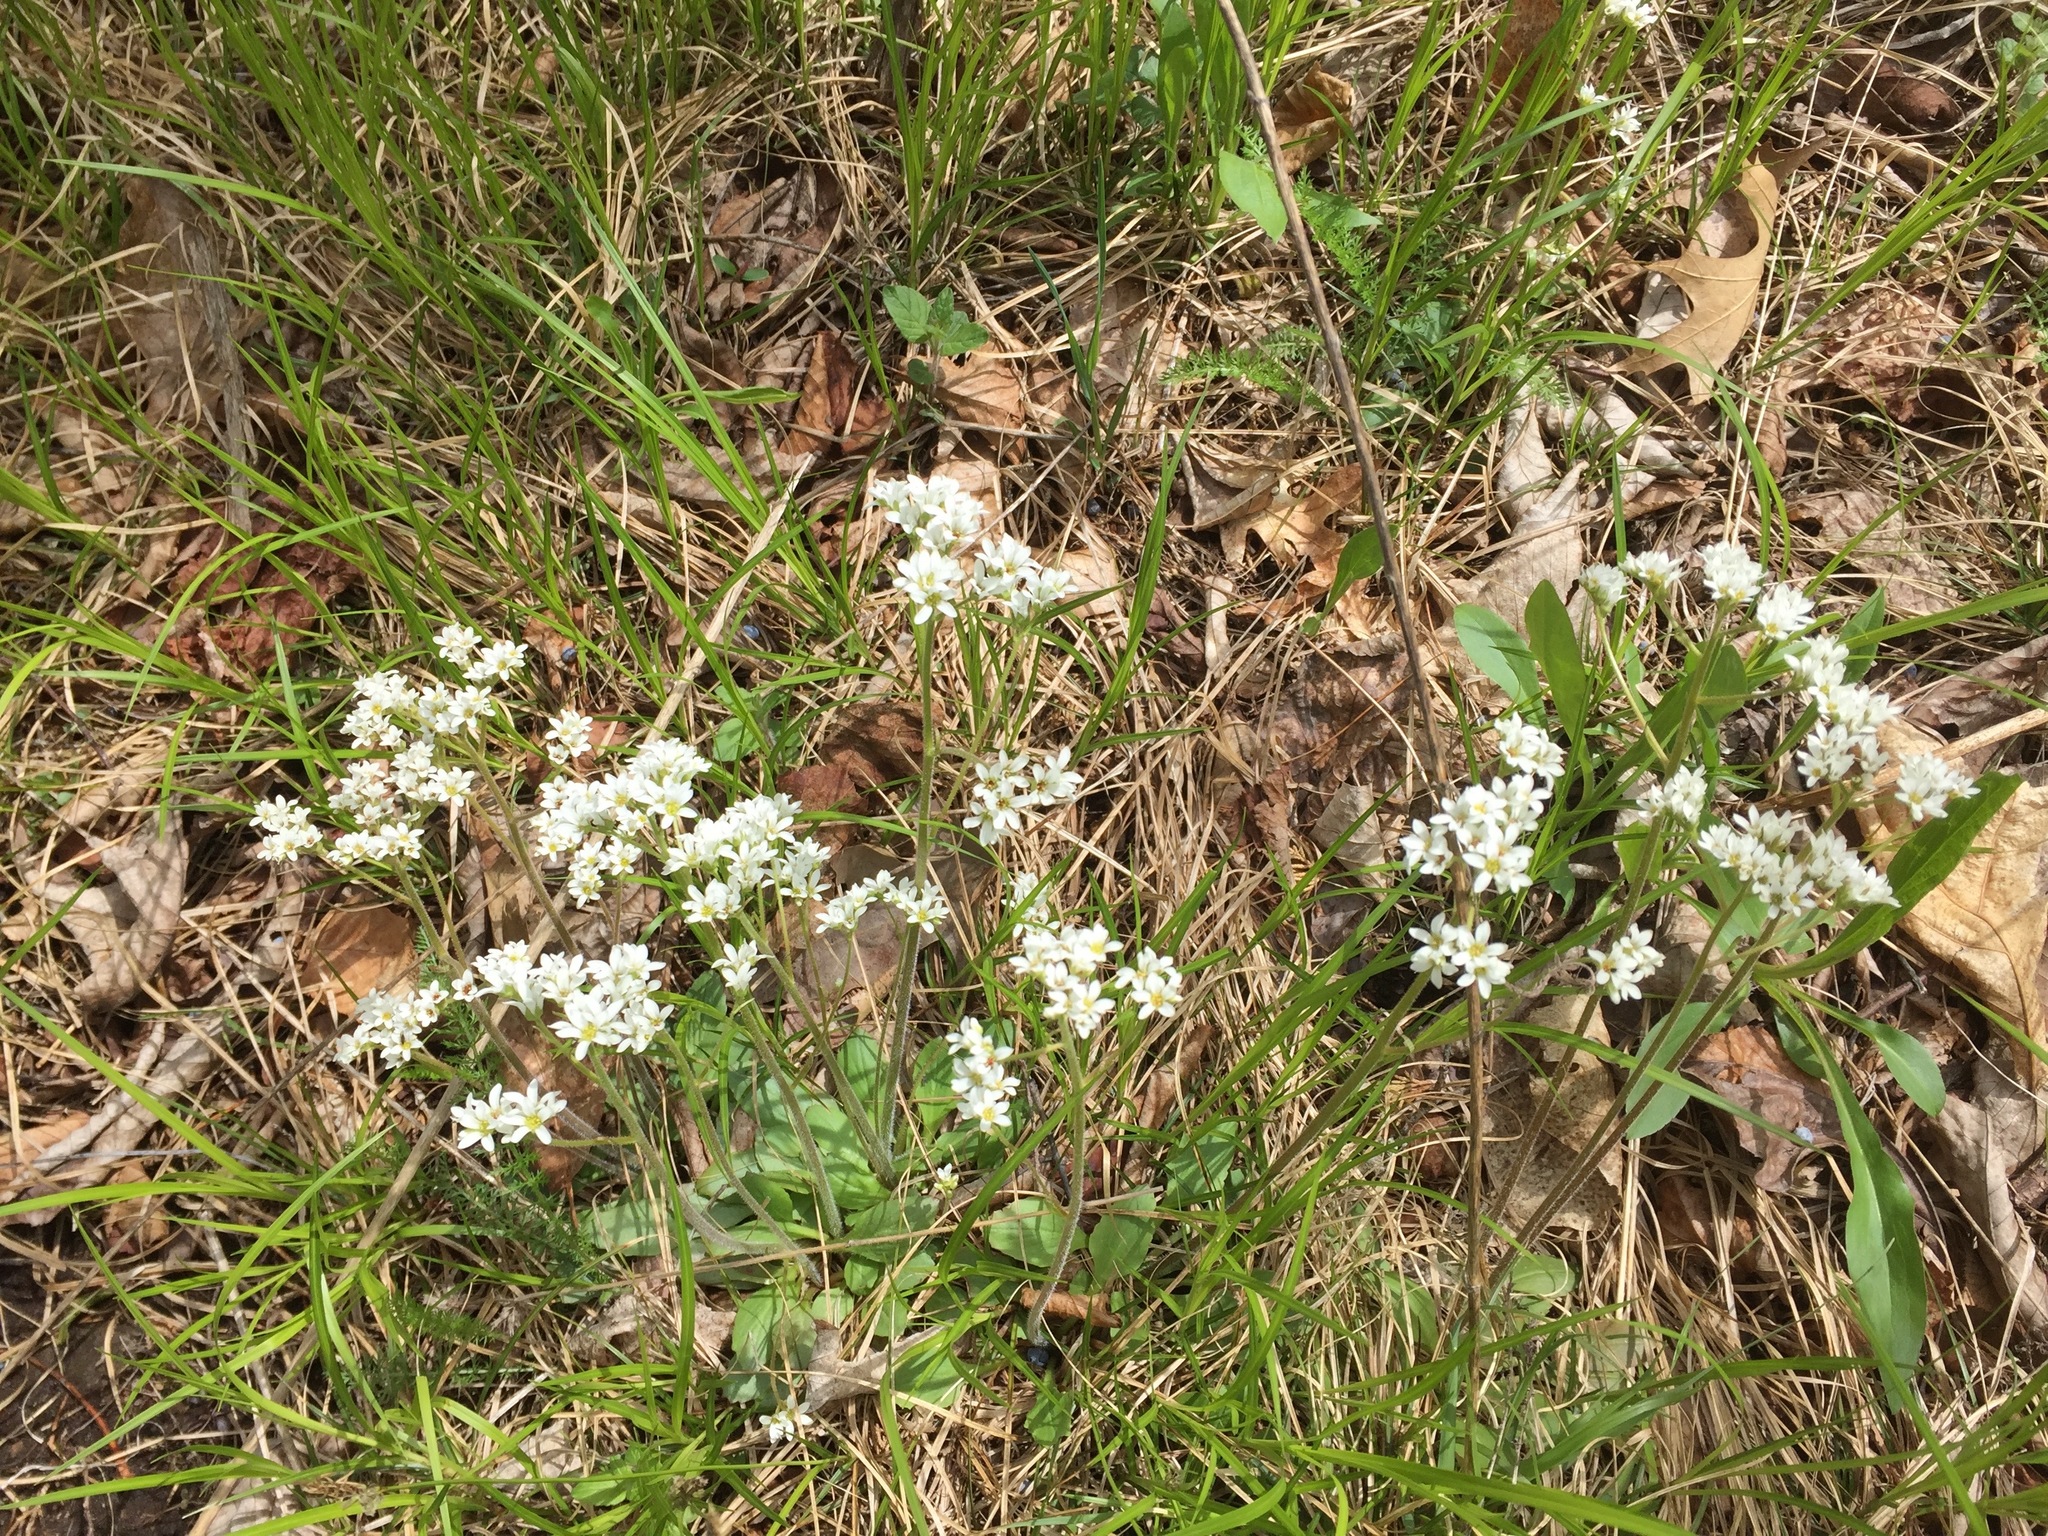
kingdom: Plantae
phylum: Tracheophyta
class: Magnoliopsida
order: Saxifragales
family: Saxifragaceae
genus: Micranthes
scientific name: Micranthes virginiensis
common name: Early saxifrage
